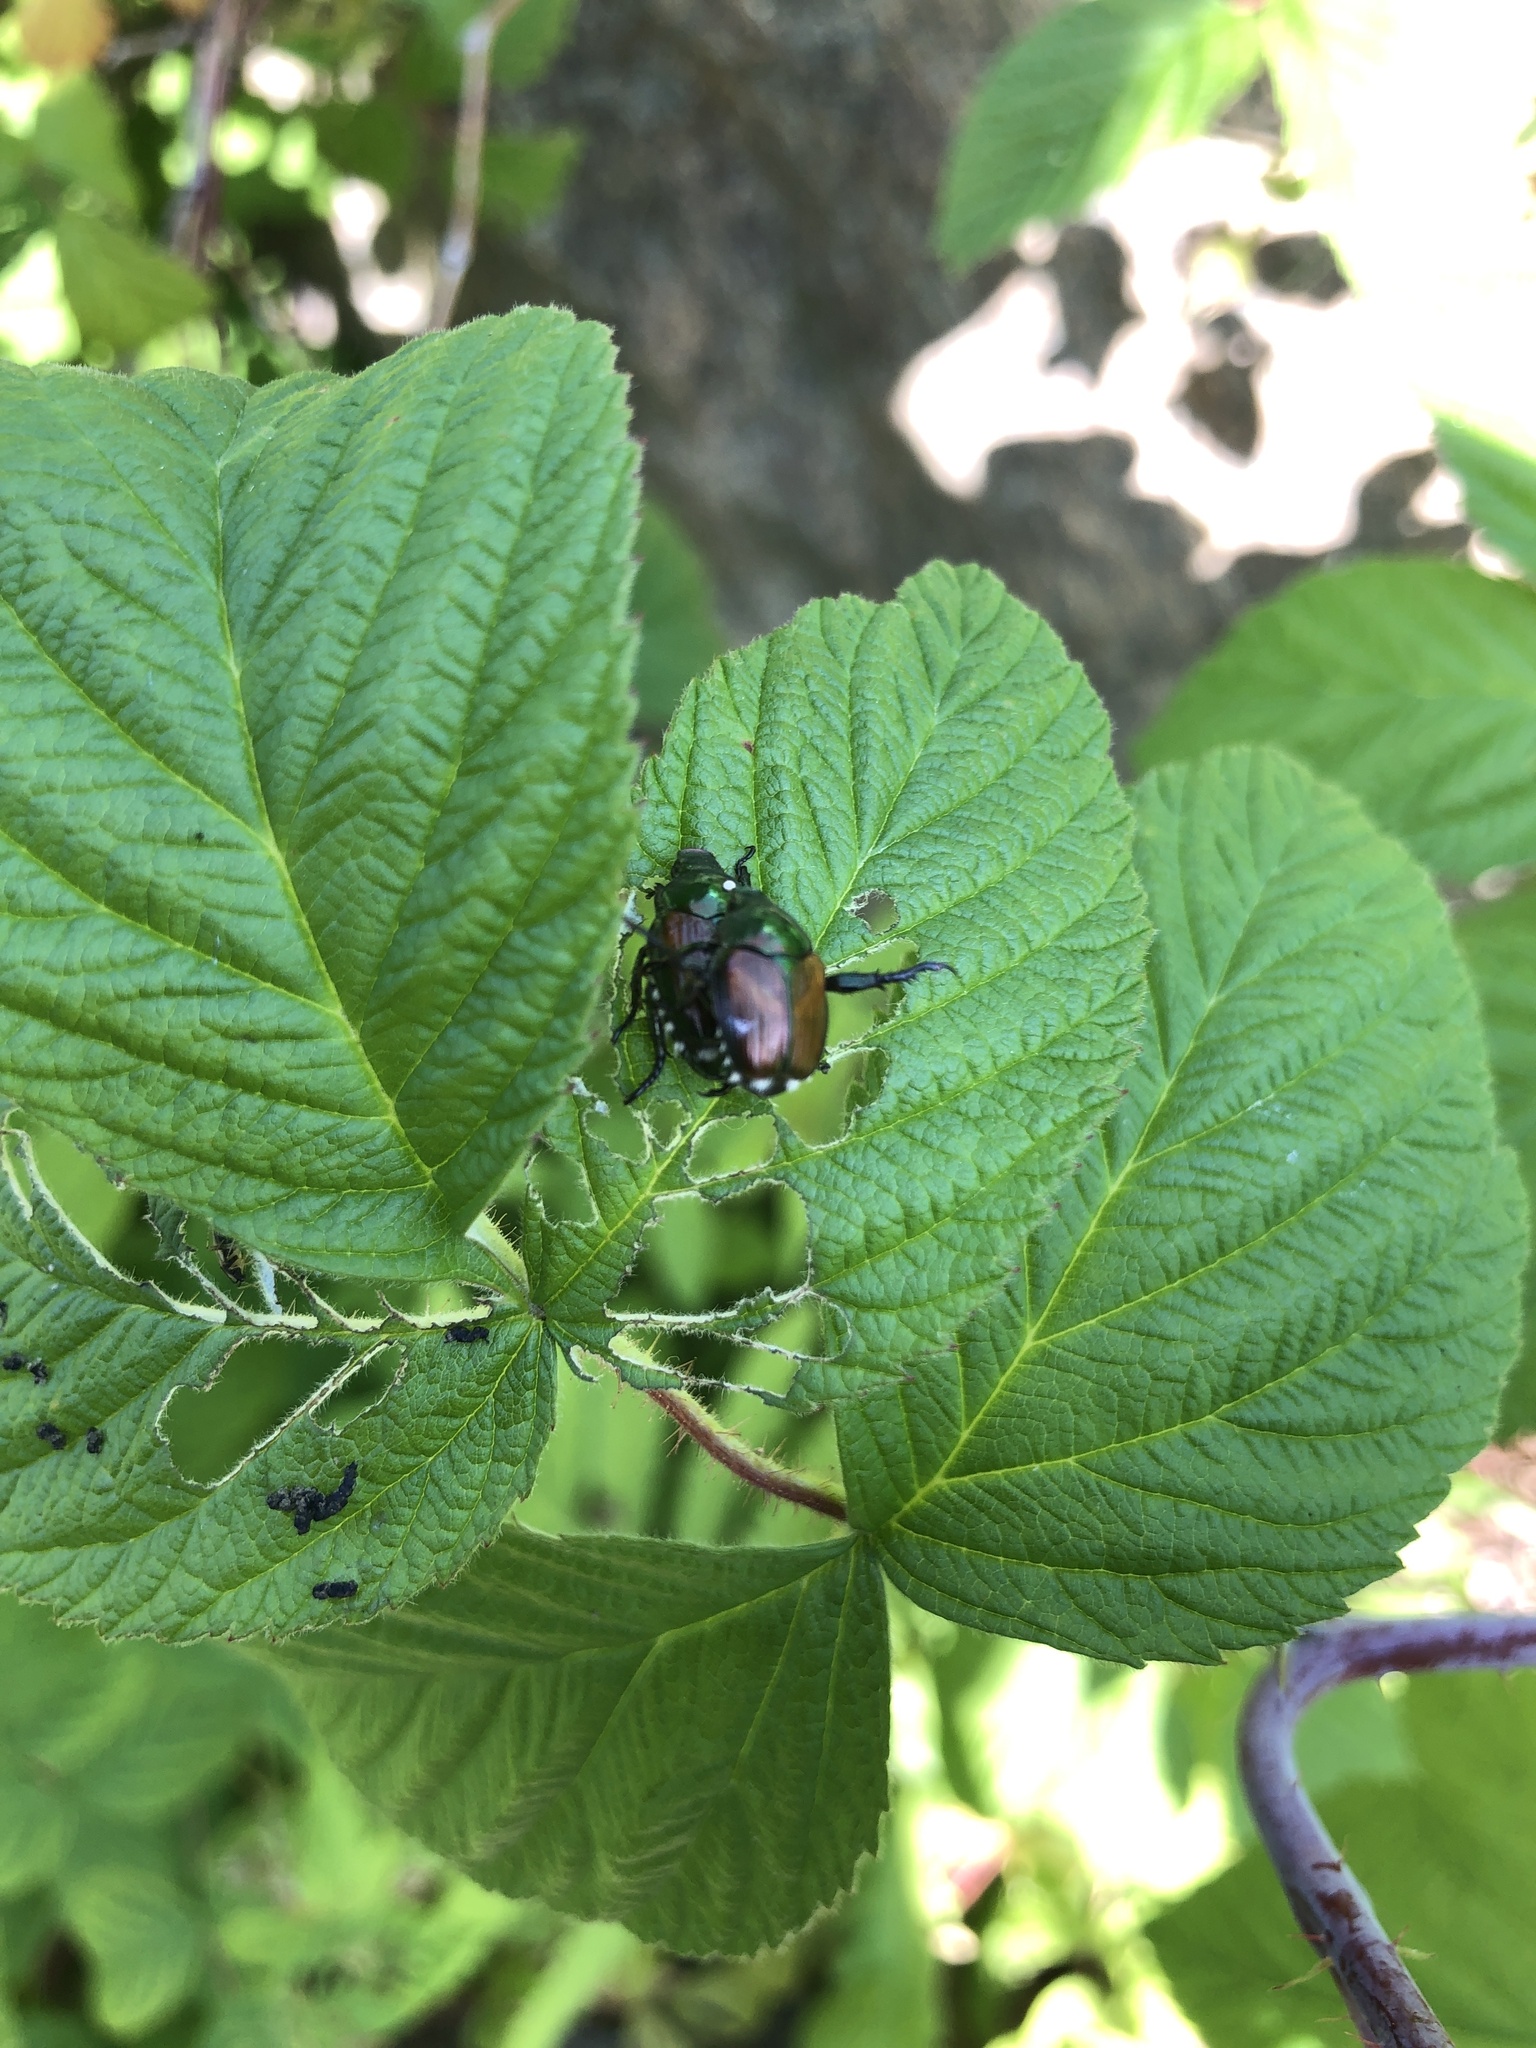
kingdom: Animalia
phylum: Arthropoda
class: Insecta
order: Coleoptera
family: Scarabaeidae
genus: Popillia
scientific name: Popillia japonica
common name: Japanese beetle
